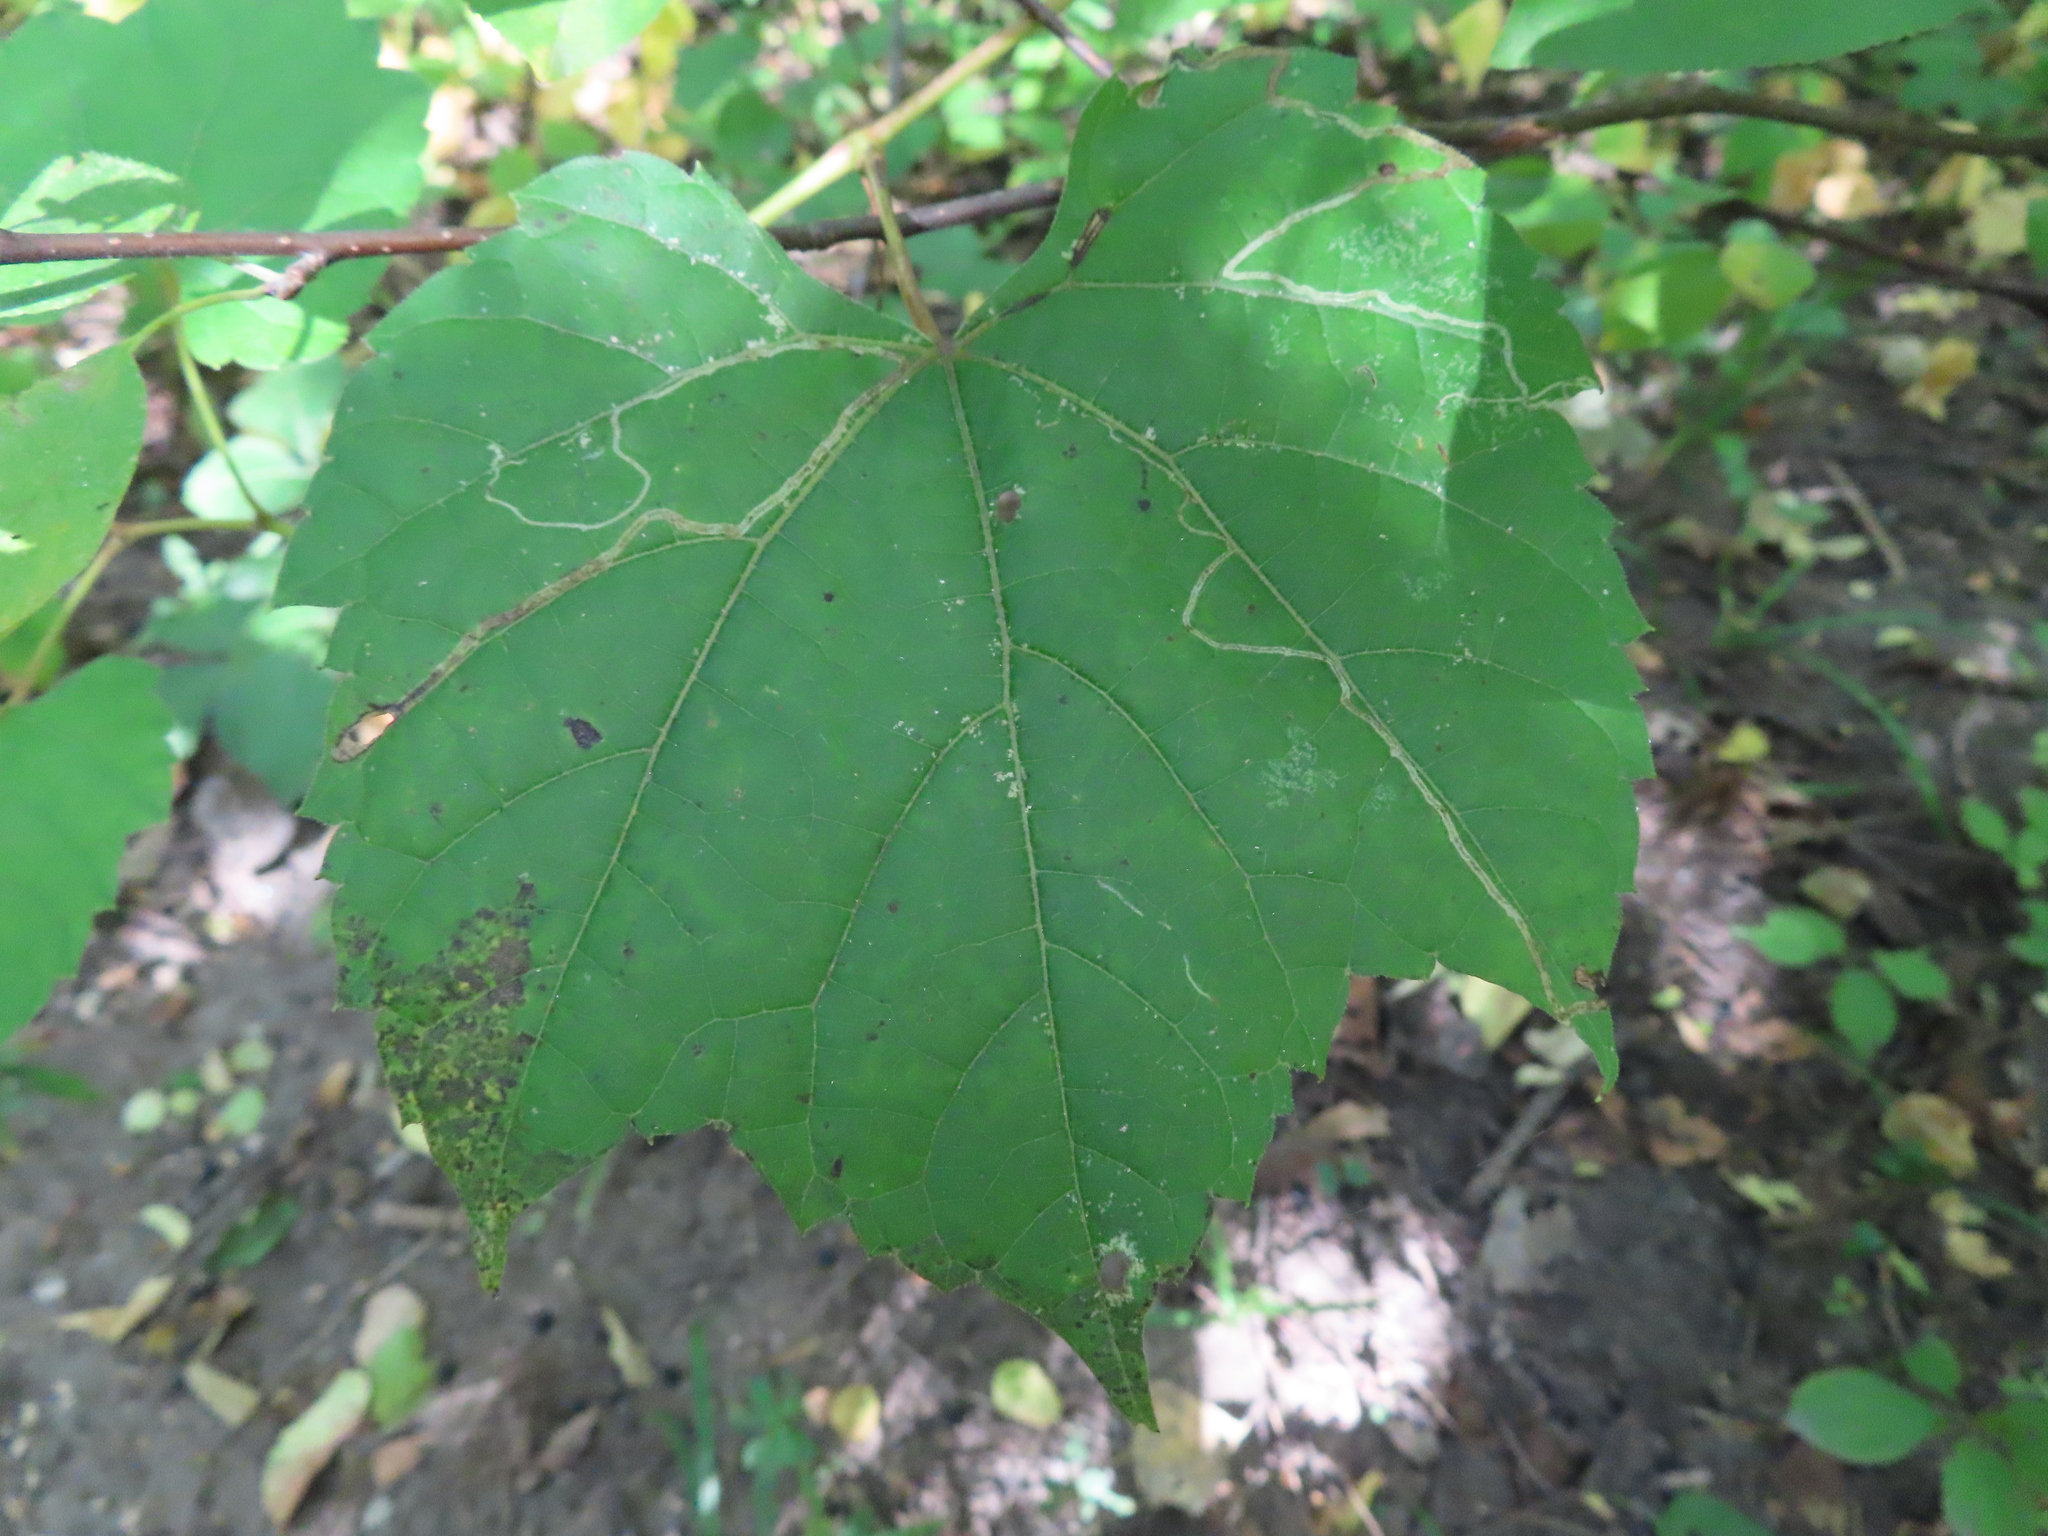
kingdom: Animalia
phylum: Arthropoda
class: Insecta
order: Lepidoptera
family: Gracillariidae
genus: Phyllocnistis
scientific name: Phyllocnistis vitifoliella
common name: Grape leaf-miner moth
